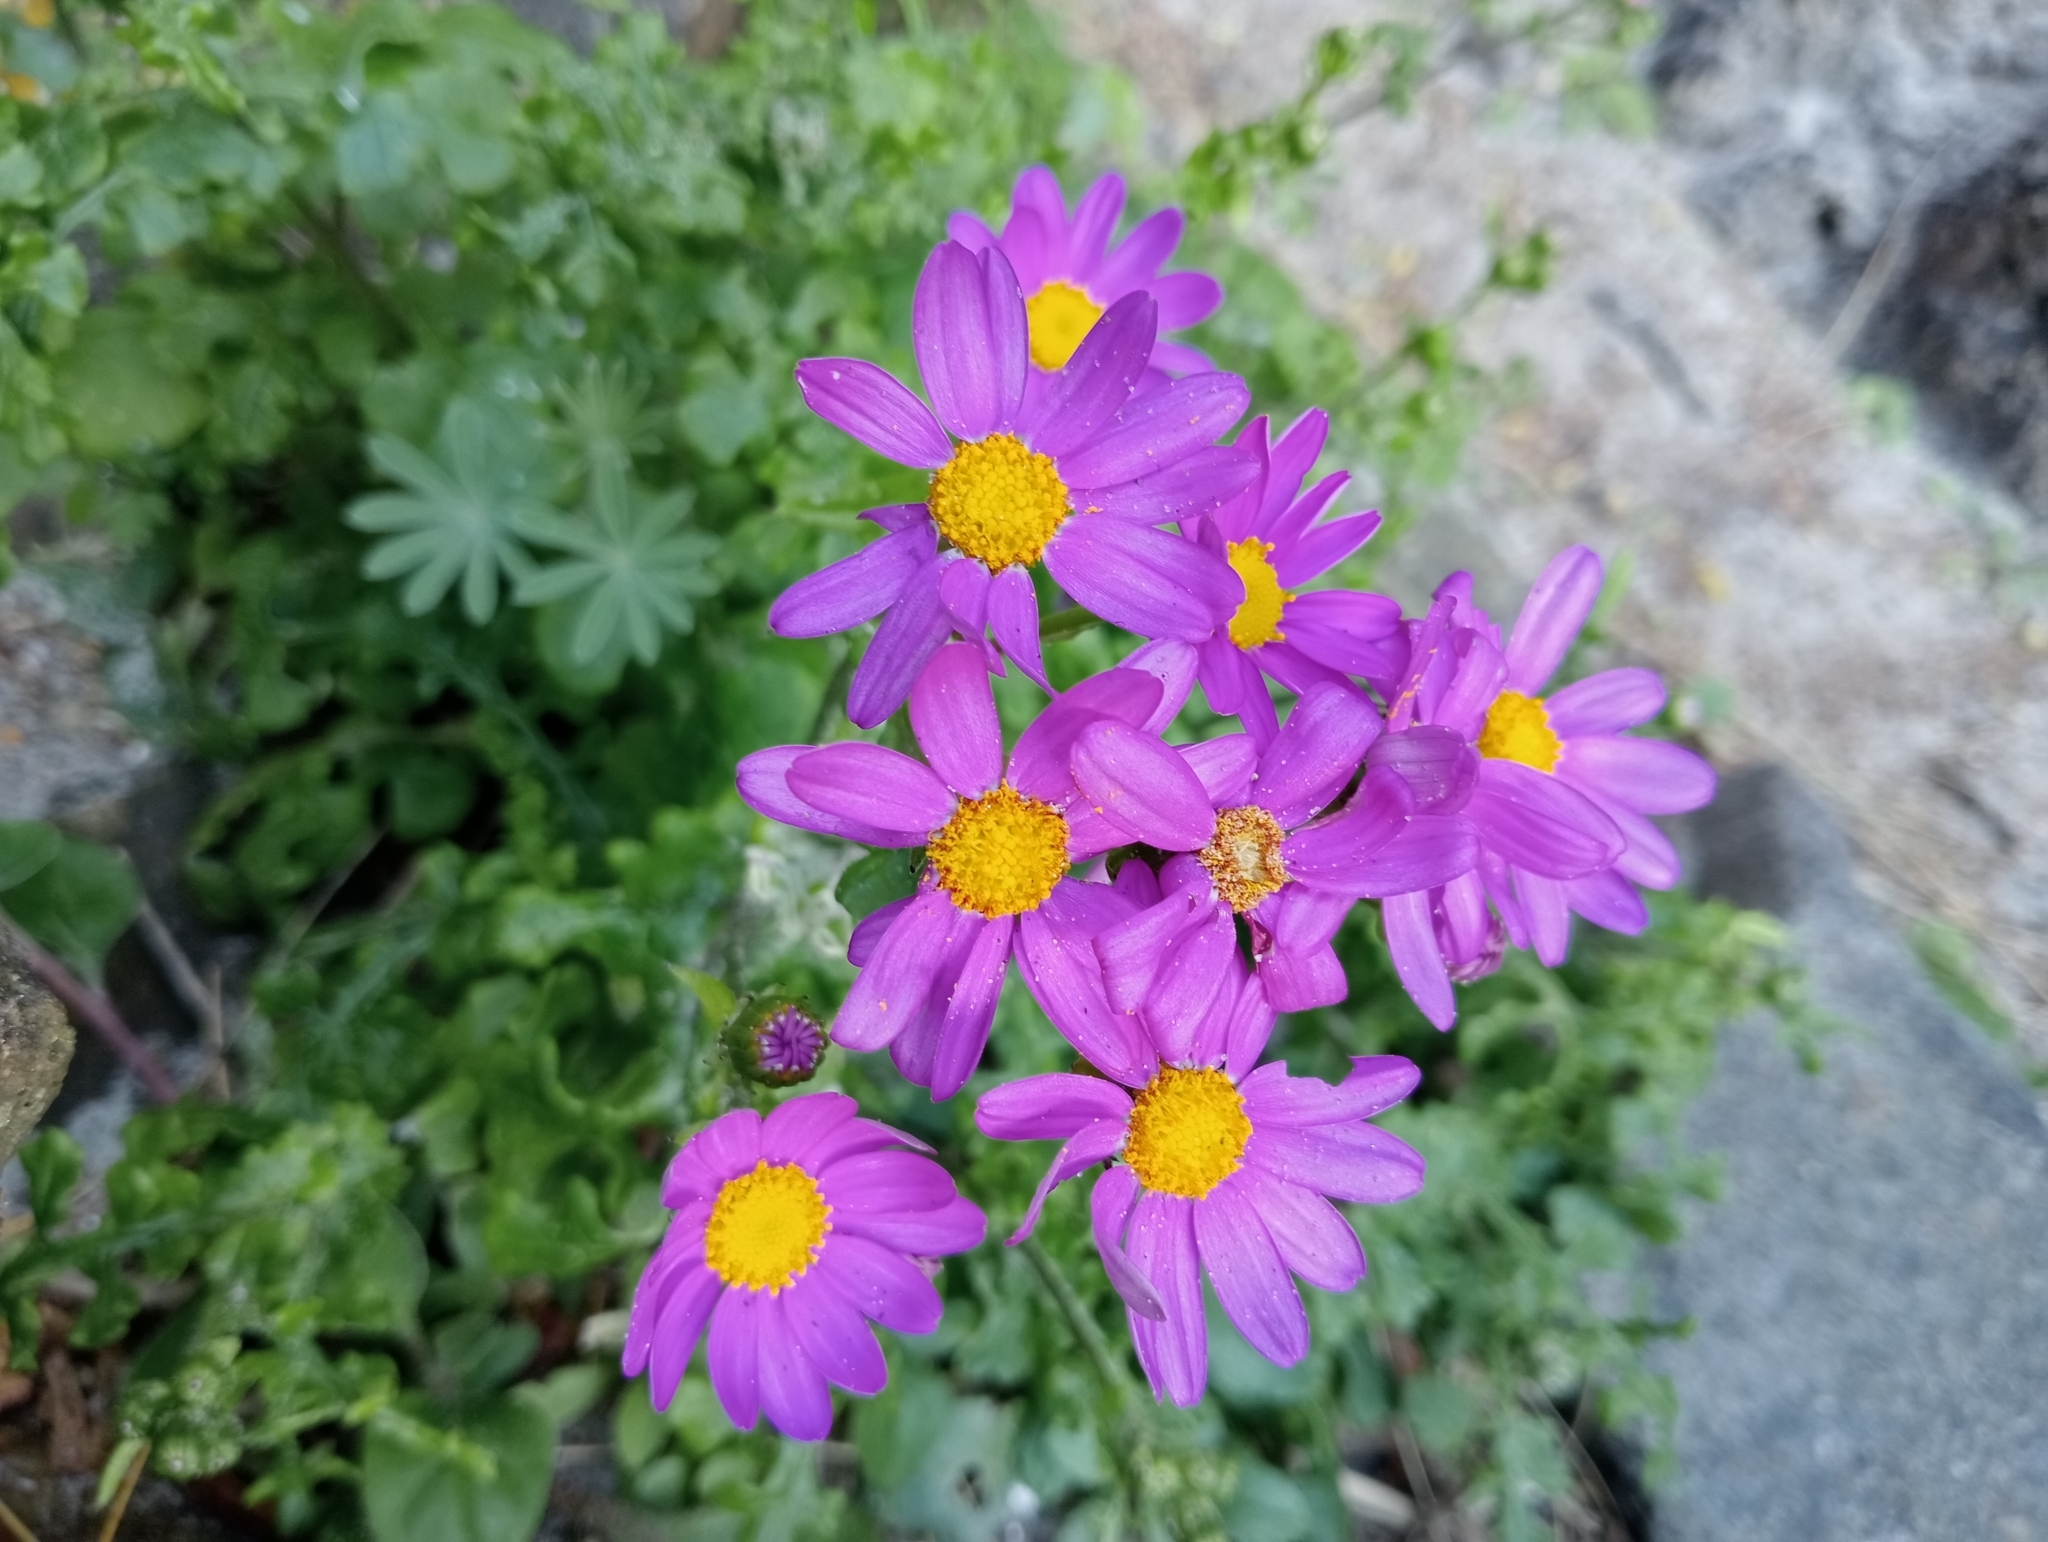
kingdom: Plantae
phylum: Tracheophyta
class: Magnoliopsida
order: Asterales
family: Asteraceae
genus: Senecio
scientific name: Senecio elegans
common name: Purple groundsel
